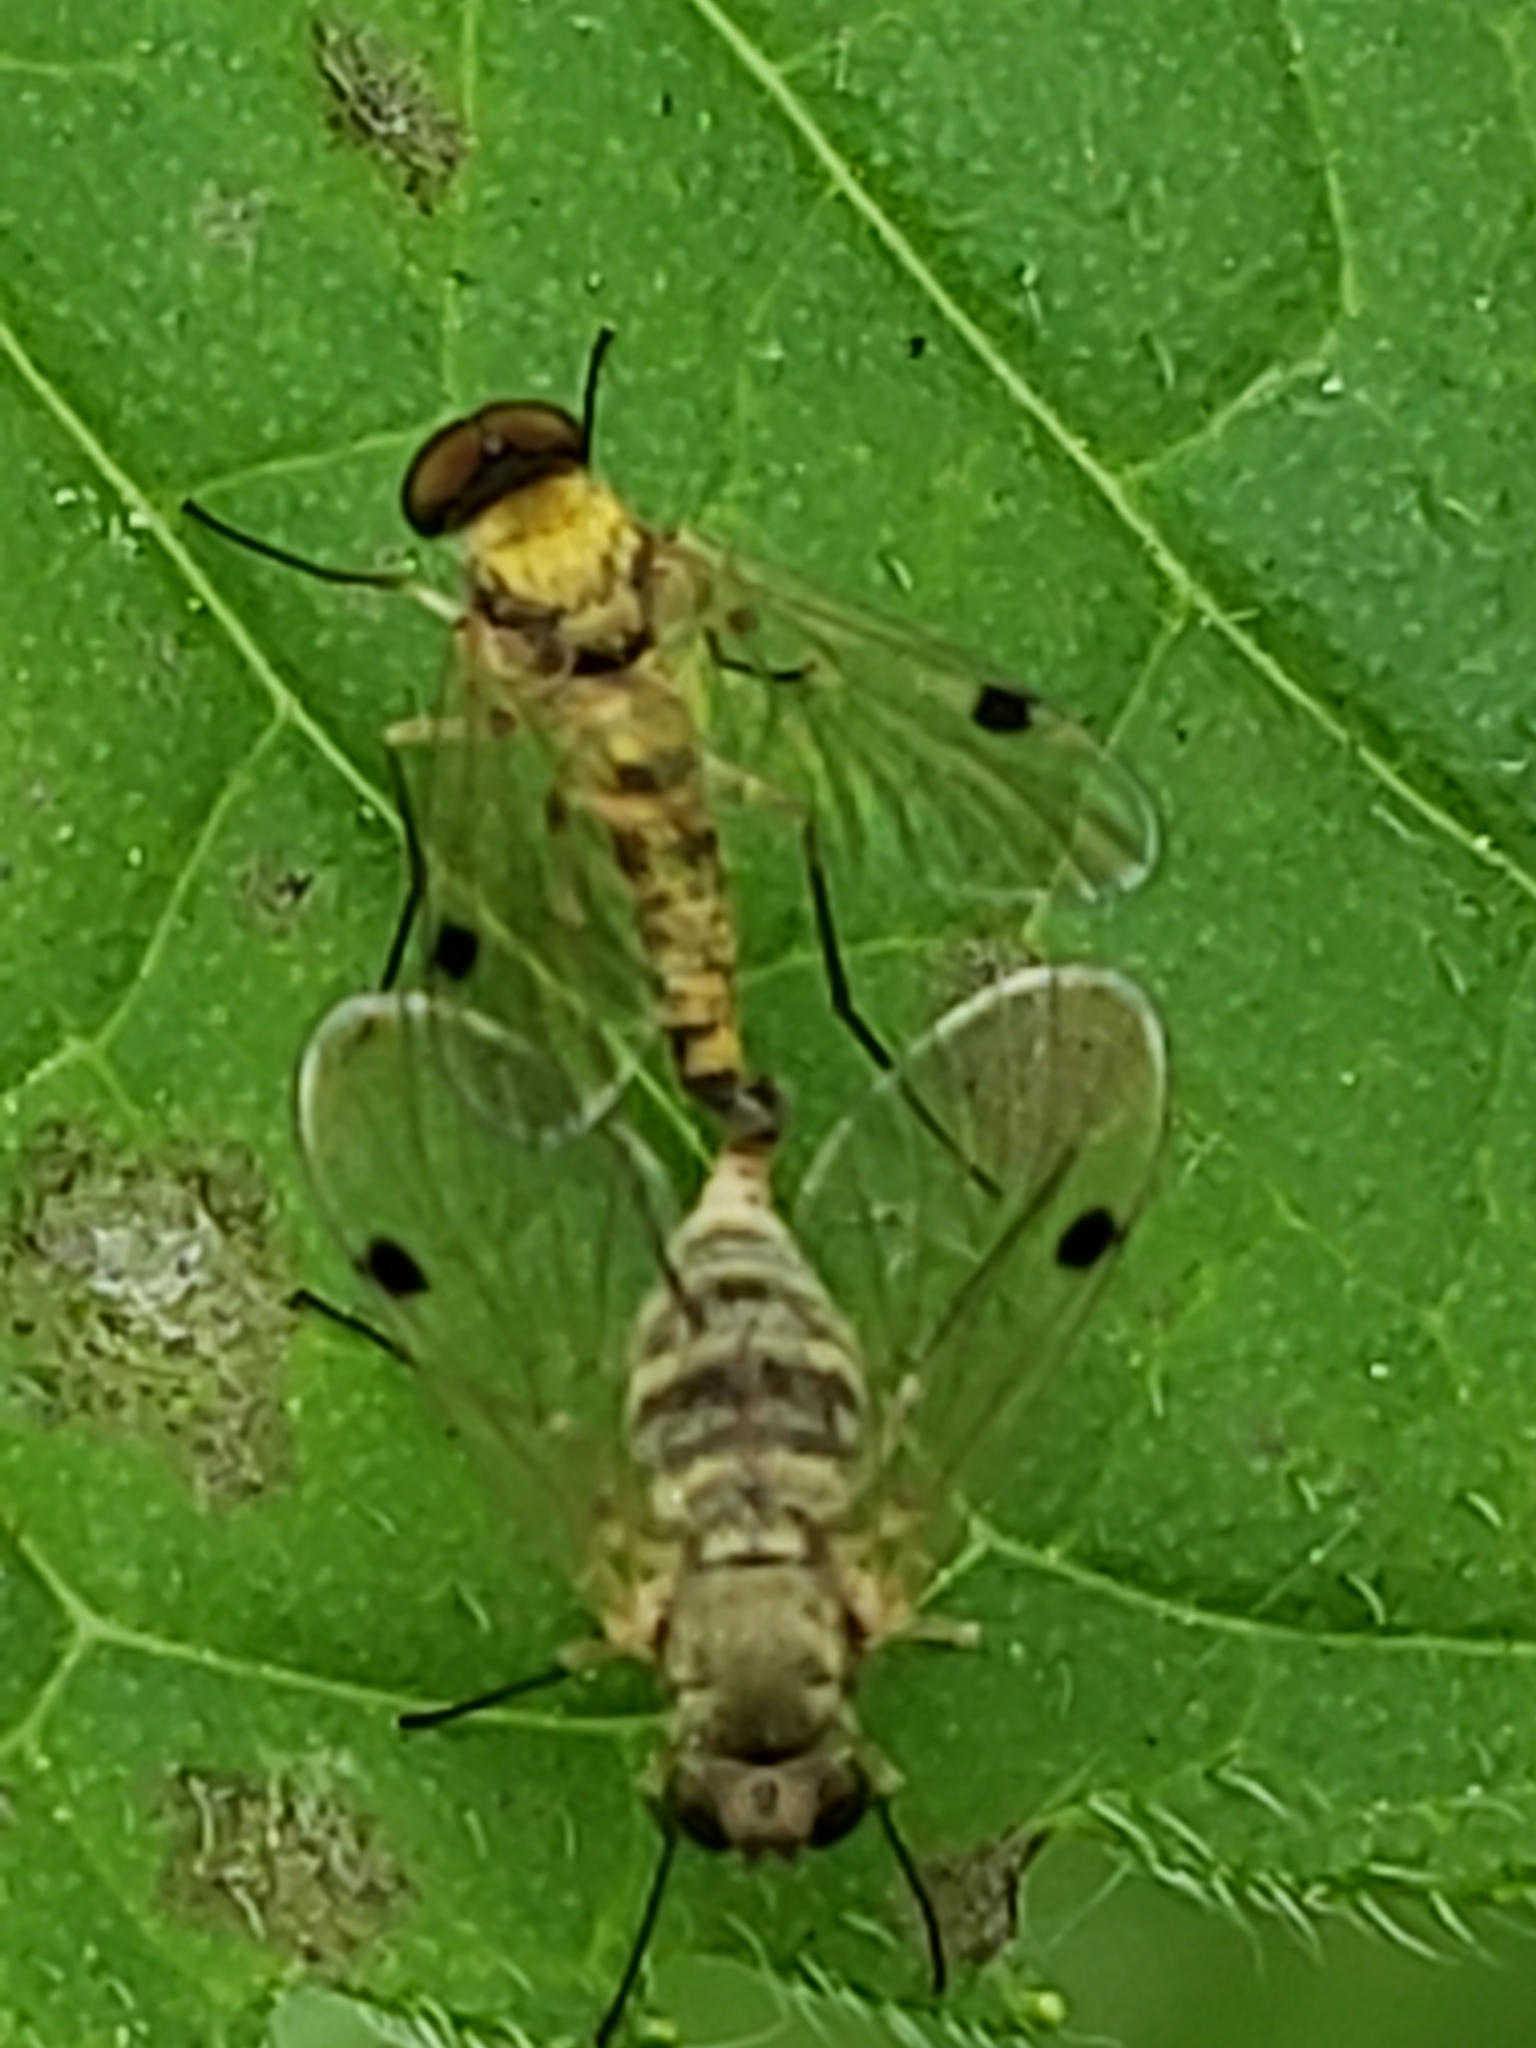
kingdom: Animalia
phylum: Arthropoda
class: Insecta
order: Diptera
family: Rhagionidae
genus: Chrysopilus
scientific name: Chrysopilus modestus
